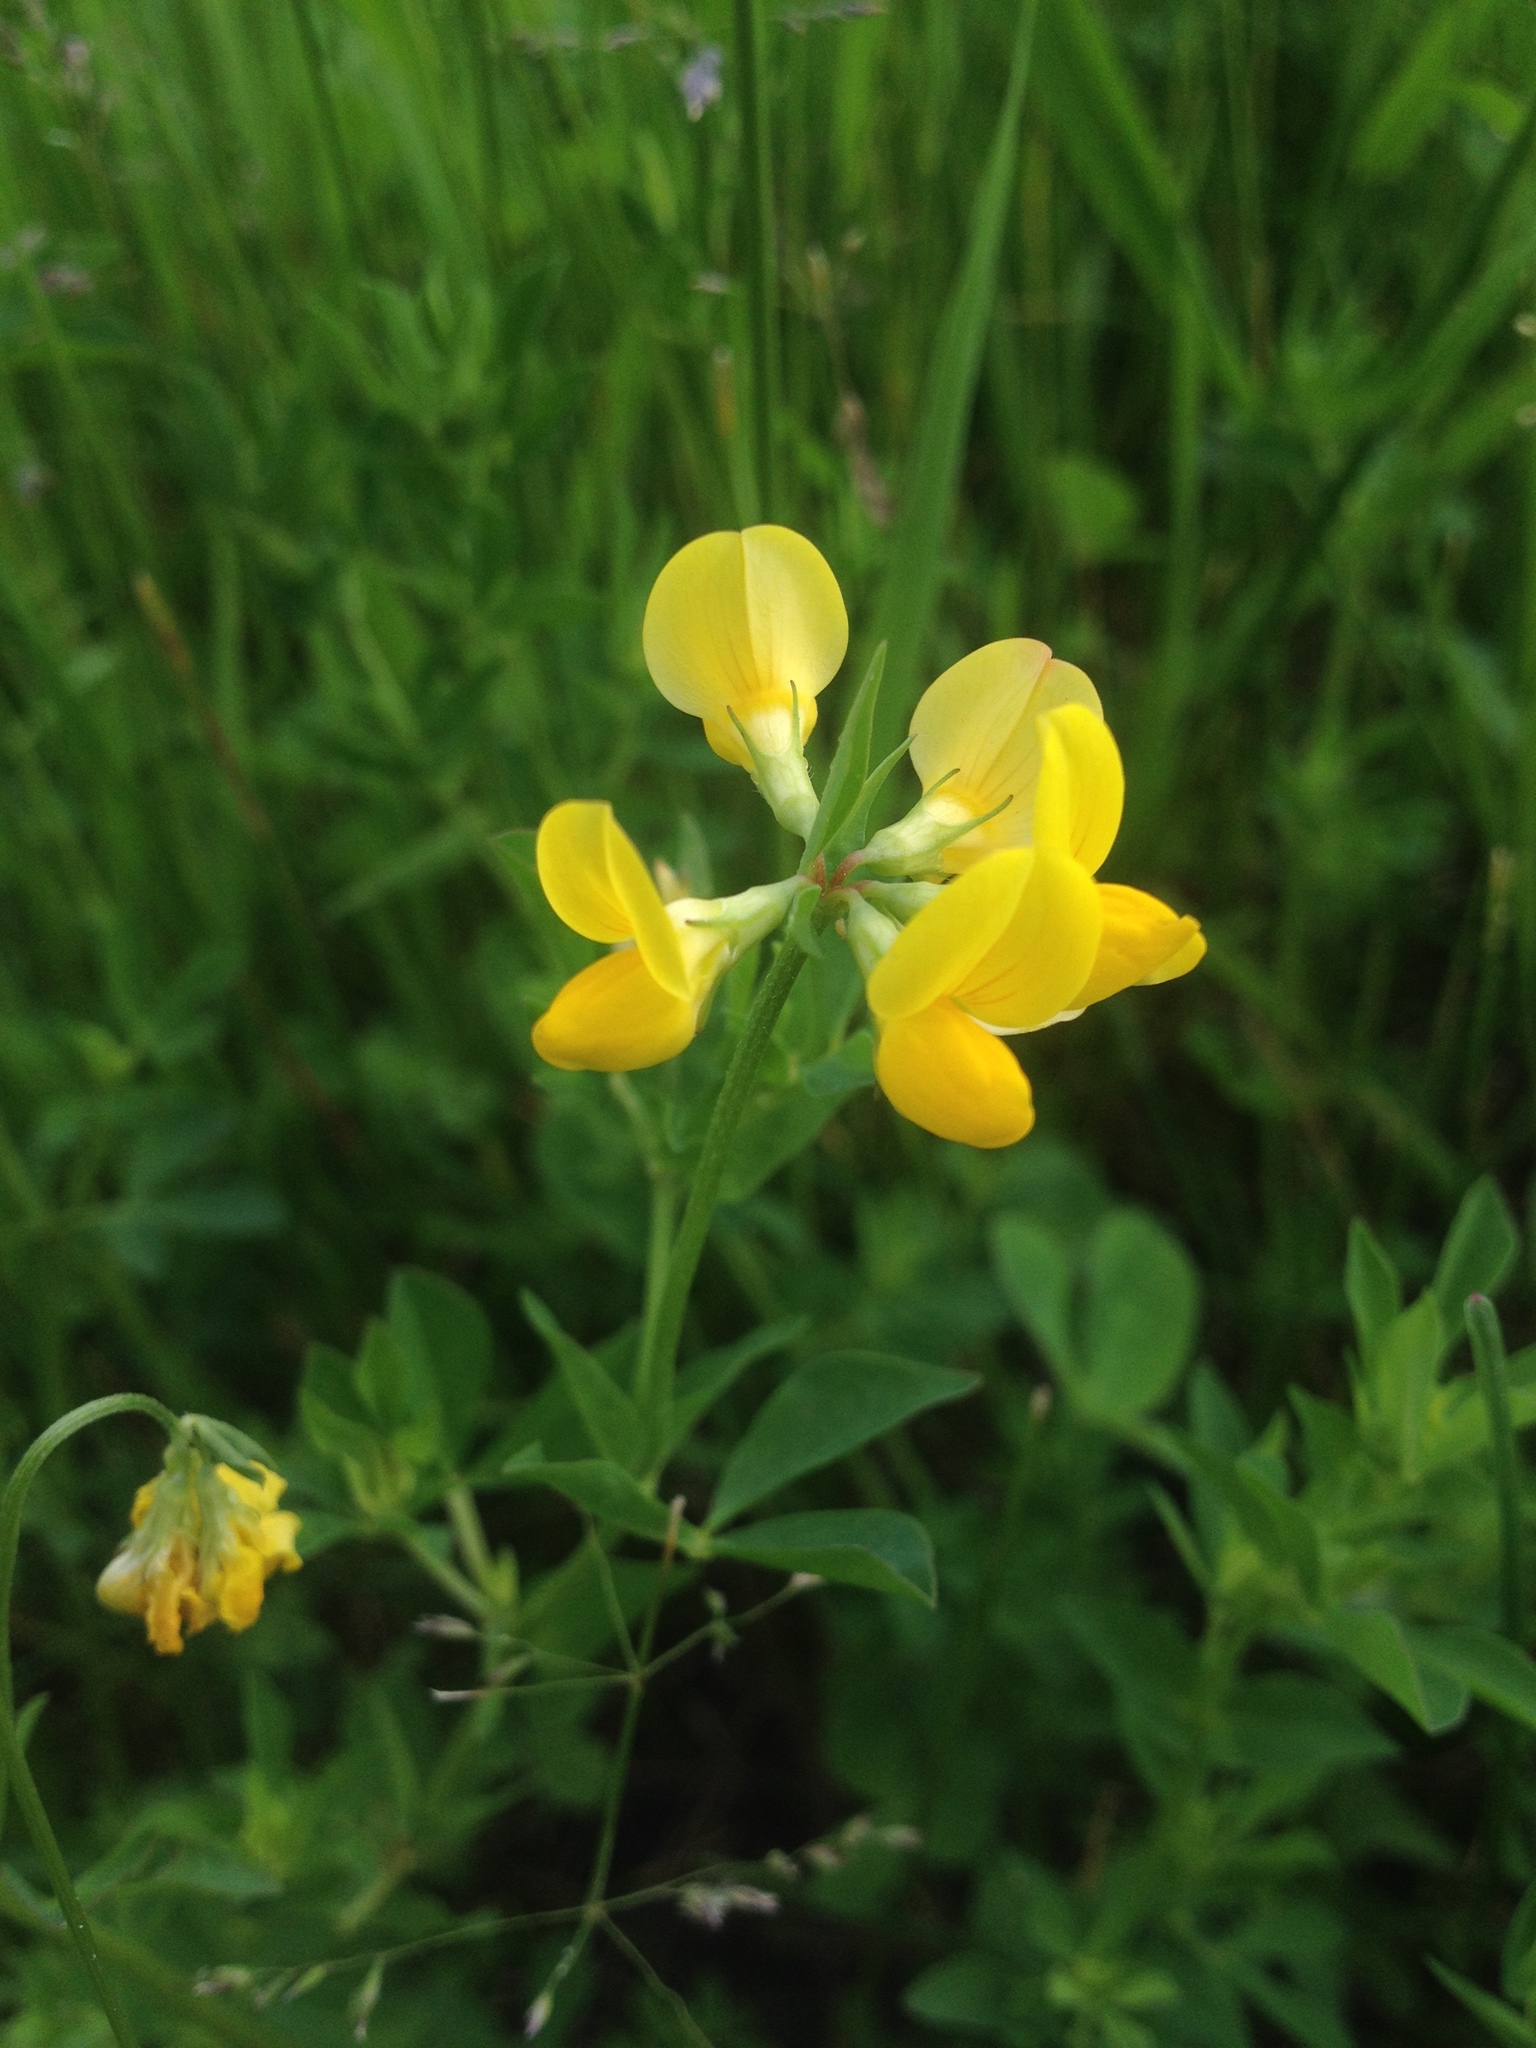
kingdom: Plantae
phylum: Tracheophyta
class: Magnoliopsida
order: Fabales
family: Fabaceae
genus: Lotus
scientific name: Lotus corniculatus
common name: Common bird's-foot-trefoil
